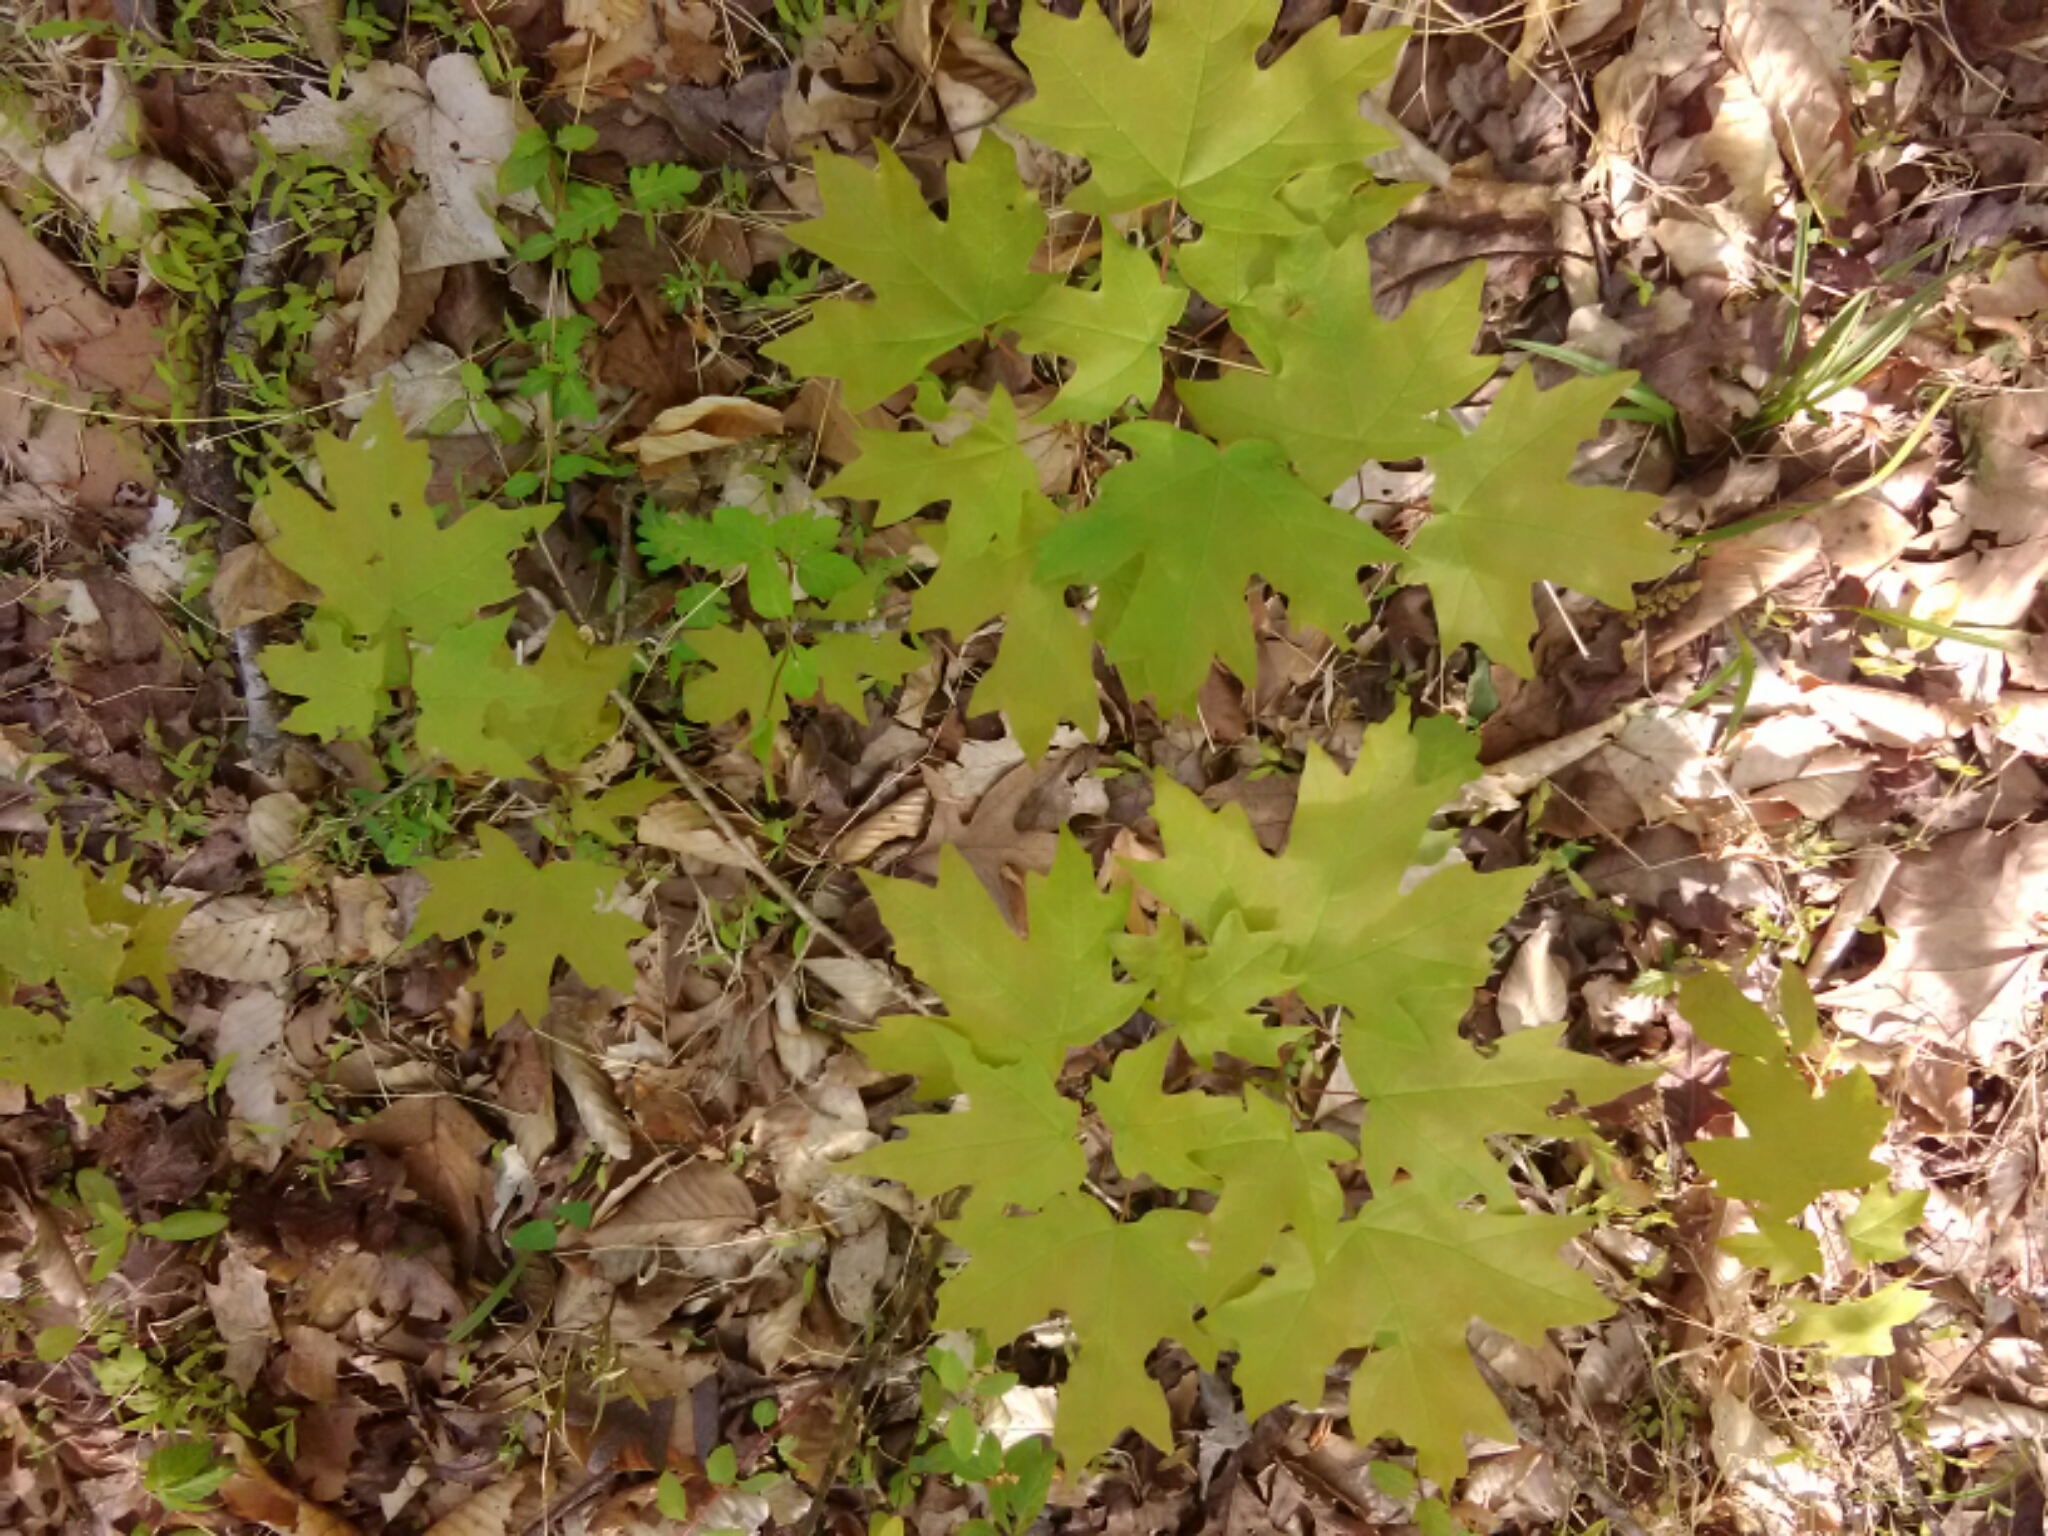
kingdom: Plantae
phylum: Tracheophyta
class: Magnoliopsida
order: Sapindales
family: Sapindaceae
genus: Acer
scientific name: Acer floridanum
